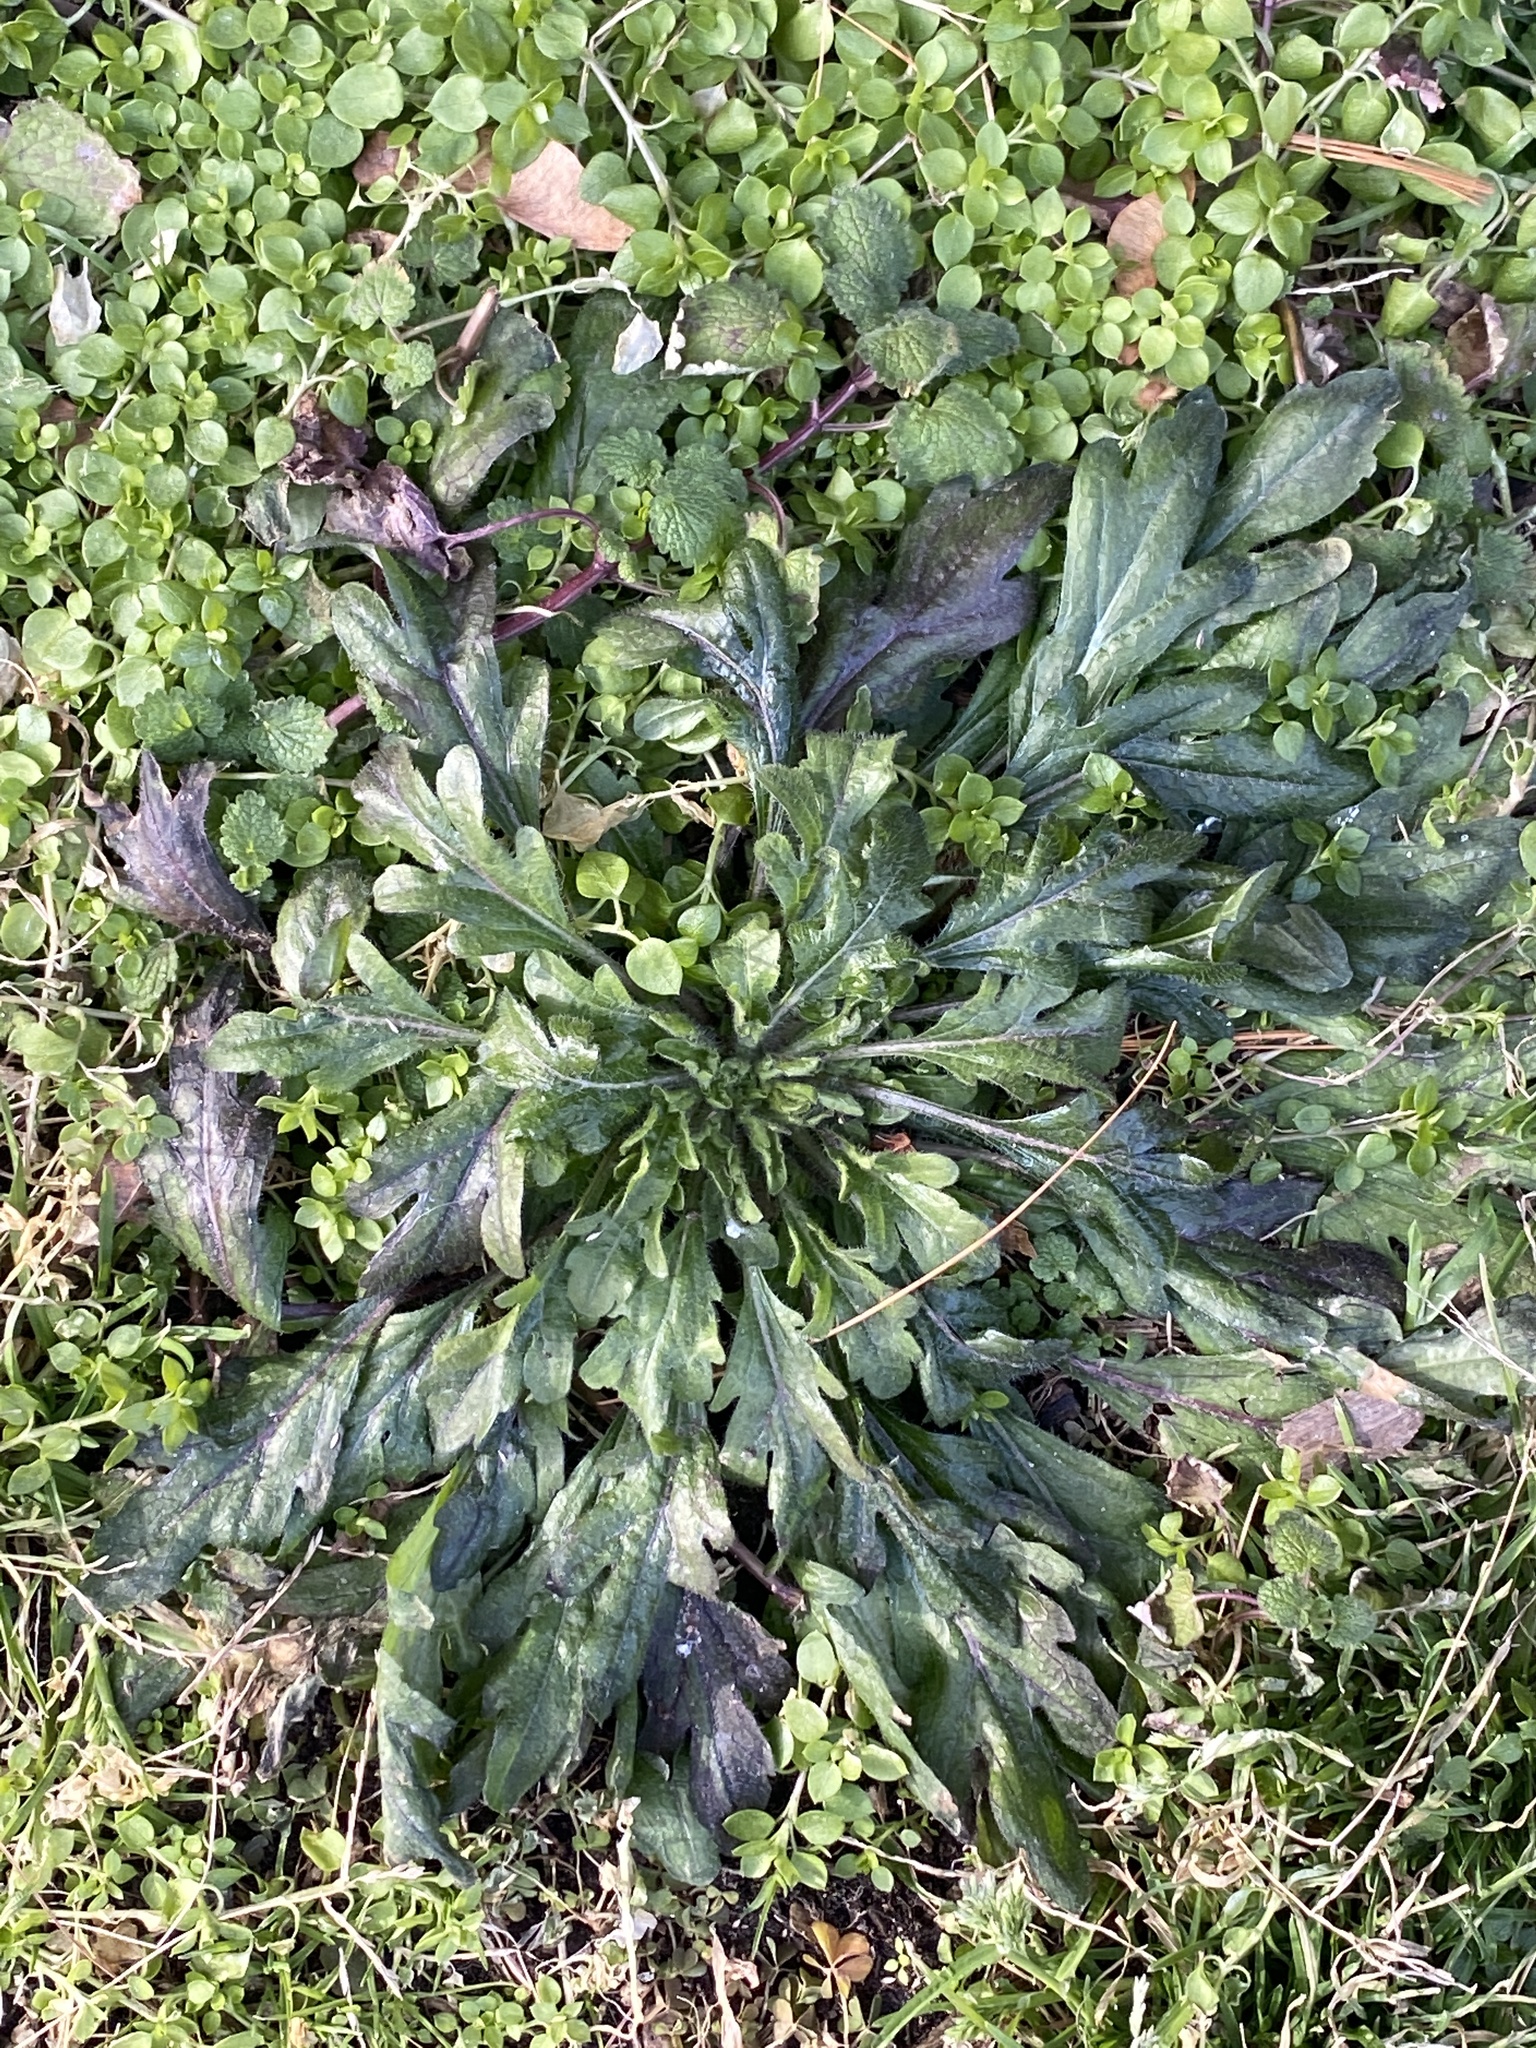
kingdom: Plantae
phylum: Tracheophyta
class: Magnoliopsida
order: Asterales
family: Asteraceae
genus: Erigeron
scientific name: Erigeron canadensis
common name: Canadian fleabane
